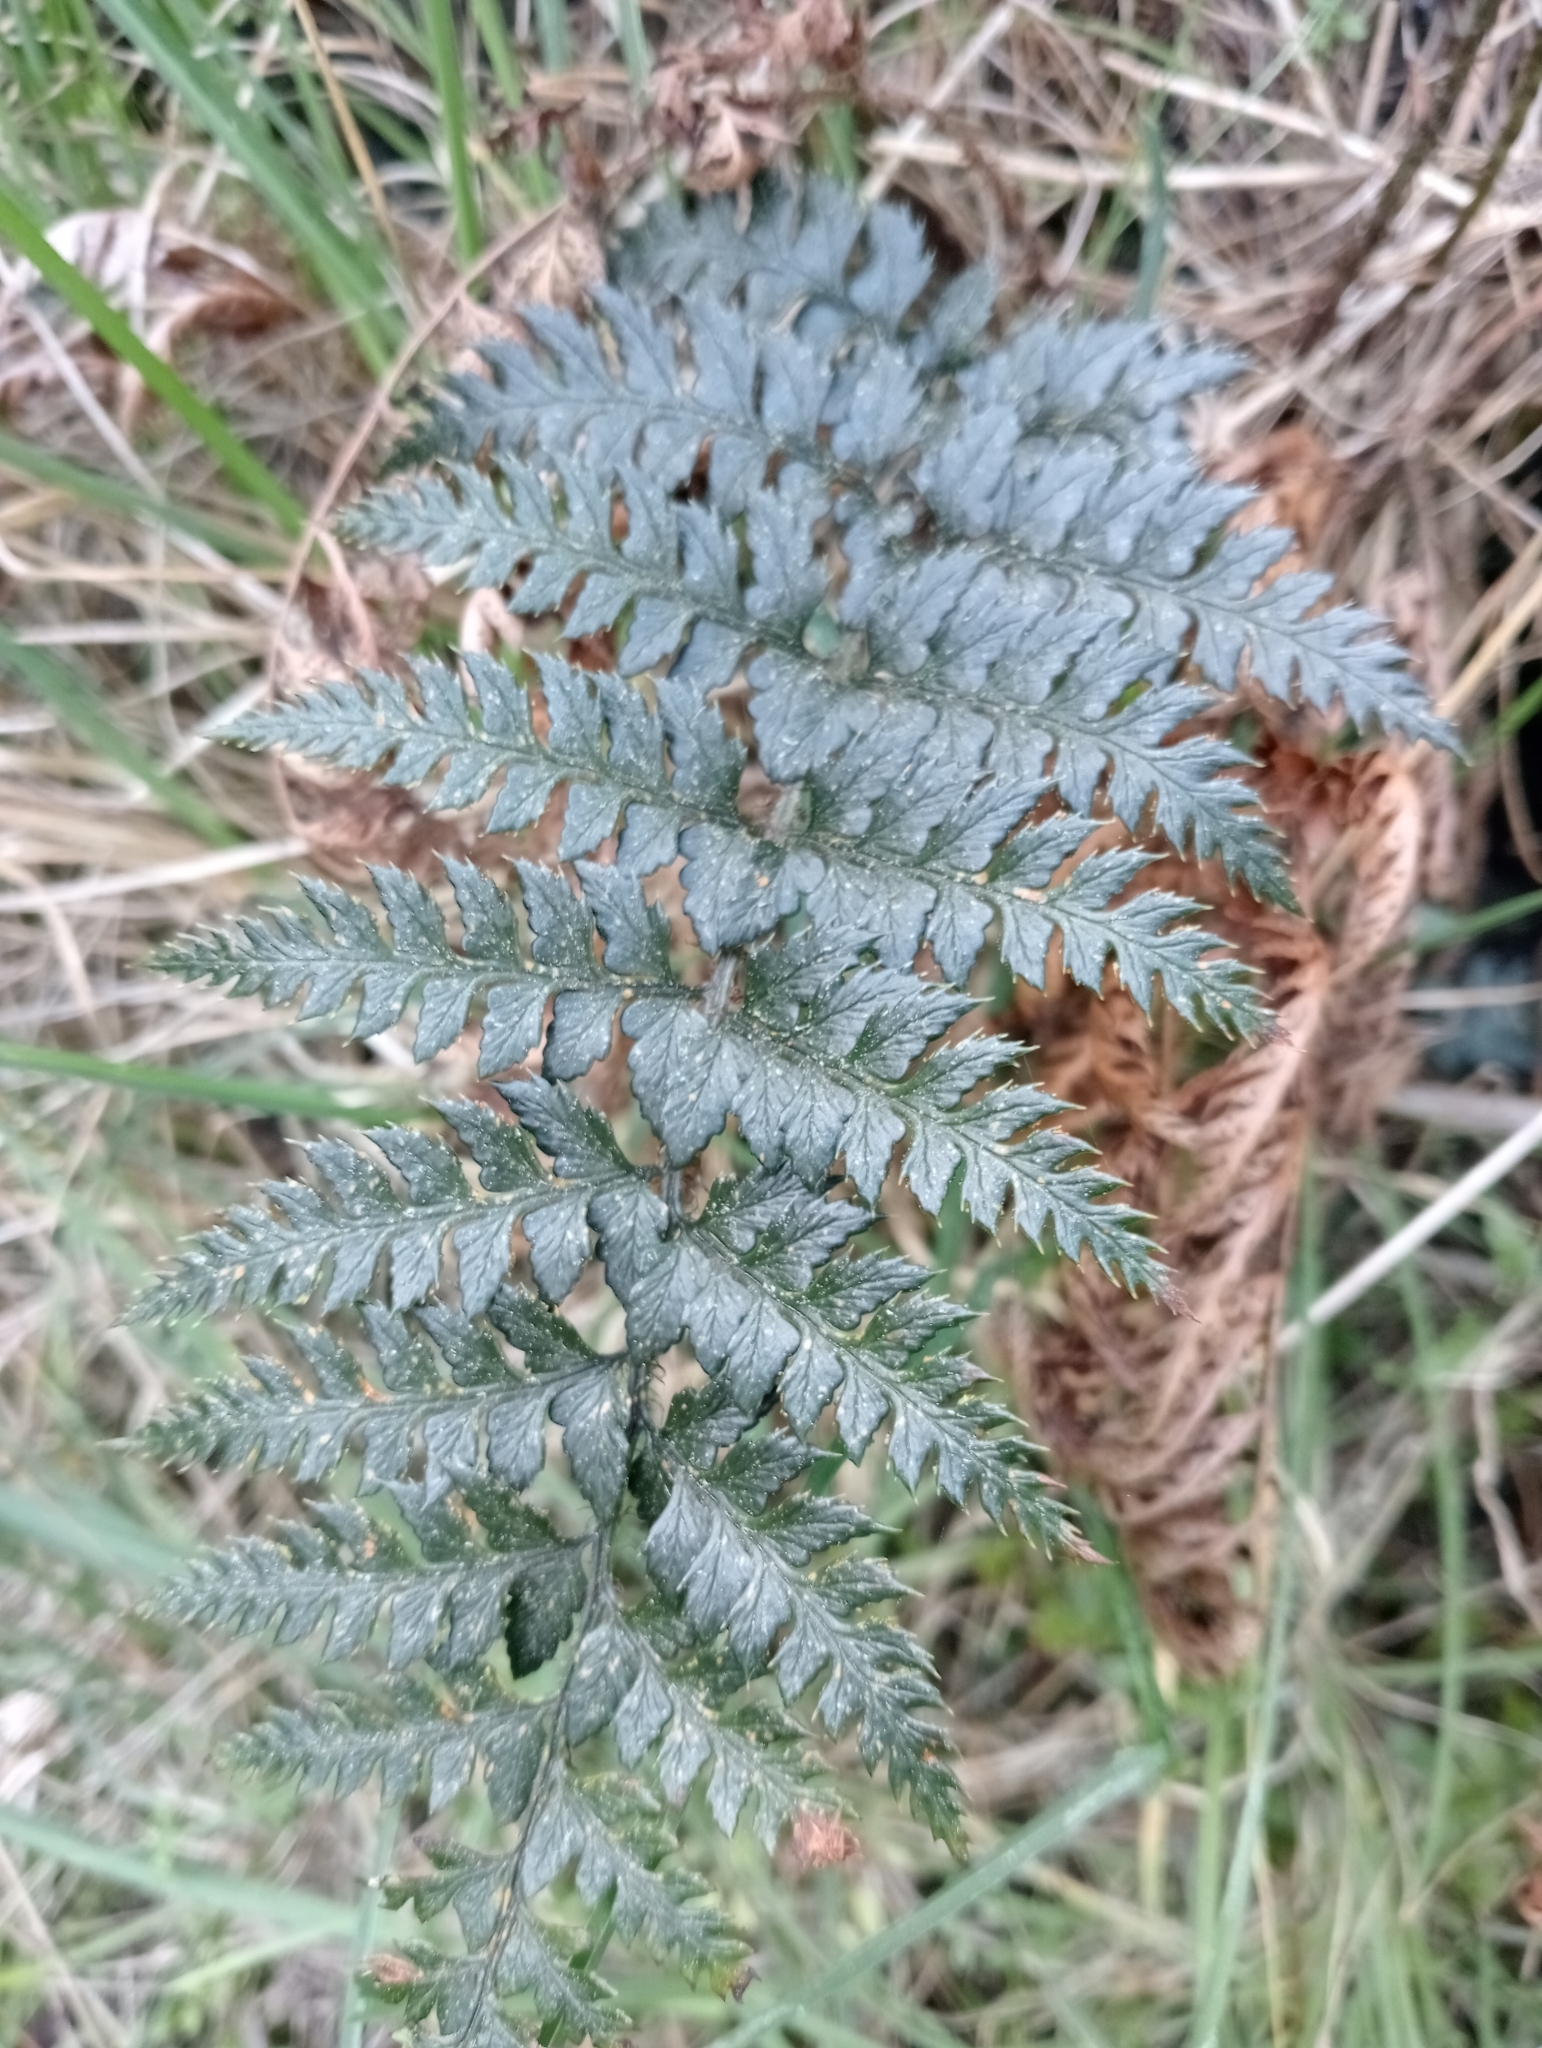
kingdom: Plantae
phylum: Tracheophyta
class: Polypodiopsida
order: Polypodiales
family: Dryopteridaceae
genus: Polystichum
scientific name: Polystichum neozelandicum
